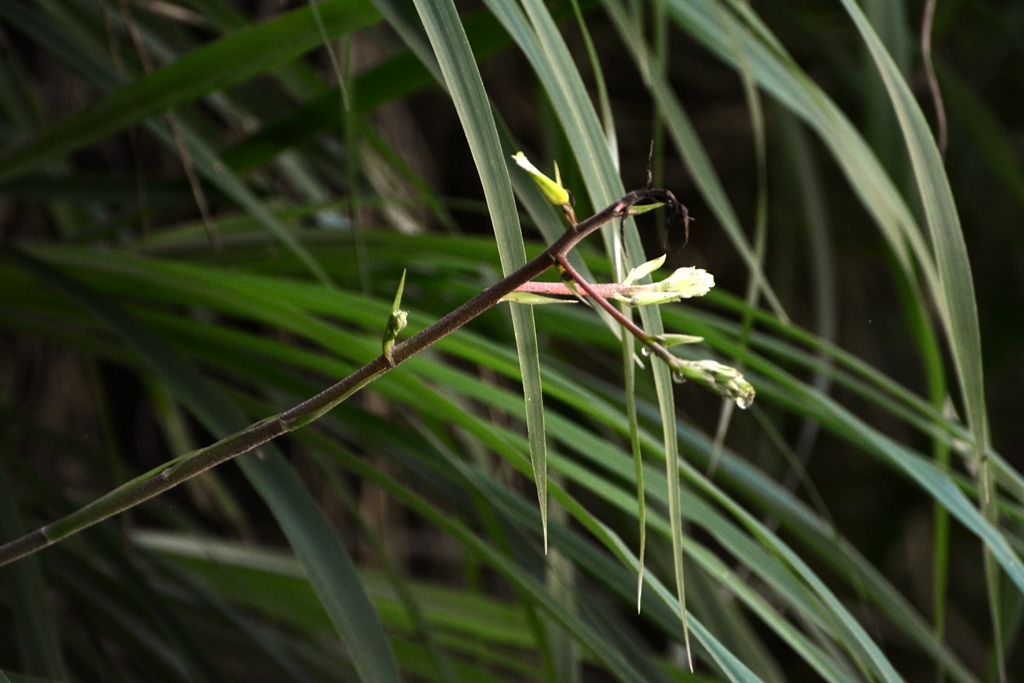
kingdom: Plantae
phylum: Tracheophyta
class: Liliopsida
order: Poales
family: Bromeliaceae
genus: Pitcairnia
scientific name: Pitcairnia breedlovei
